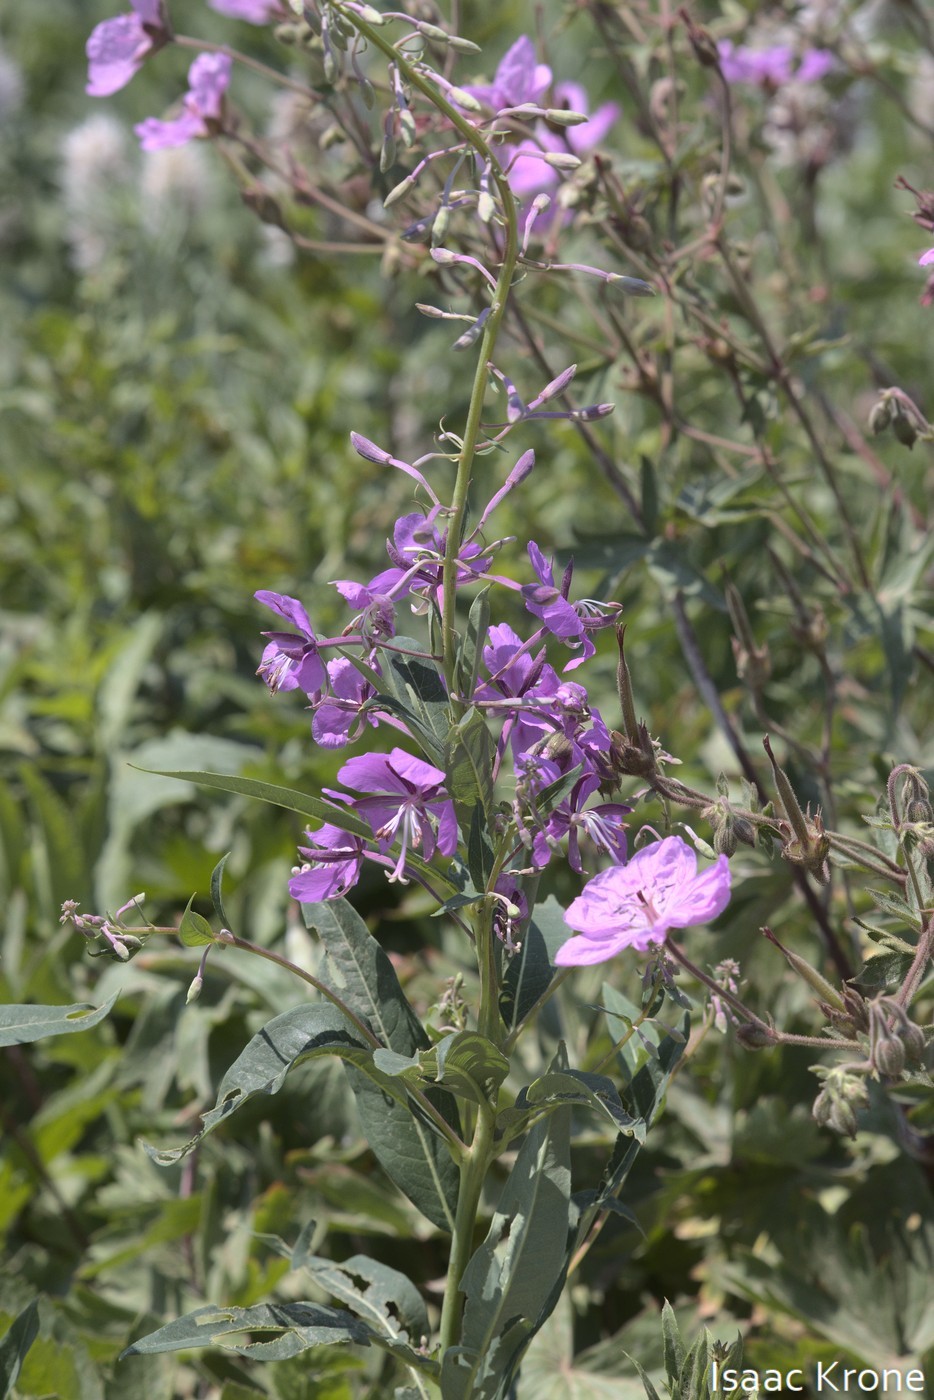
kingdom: Plantae
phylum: Tracheophyta
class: Magnoliopsida
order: Myrtales
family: Onagraceae
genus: Chamaenerion
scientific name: Chamaenerion angustifolium
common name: Fireweed
